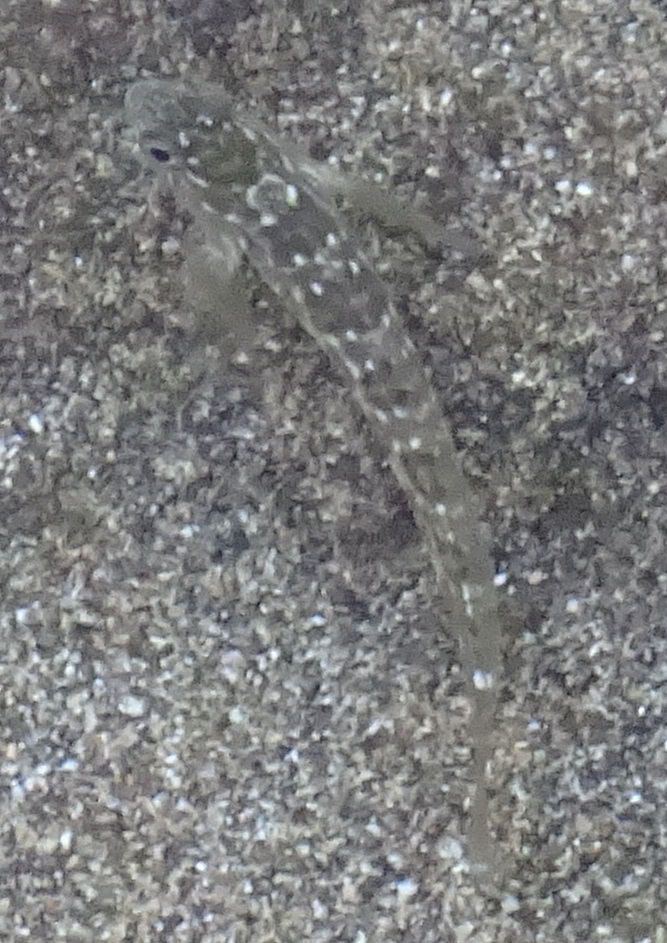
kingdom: Animalia
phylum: Chordata
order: Perciformes
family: Blenniidae
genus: Parablennius
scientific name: Parablennius parvicornis
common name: Rock-pool blenny
